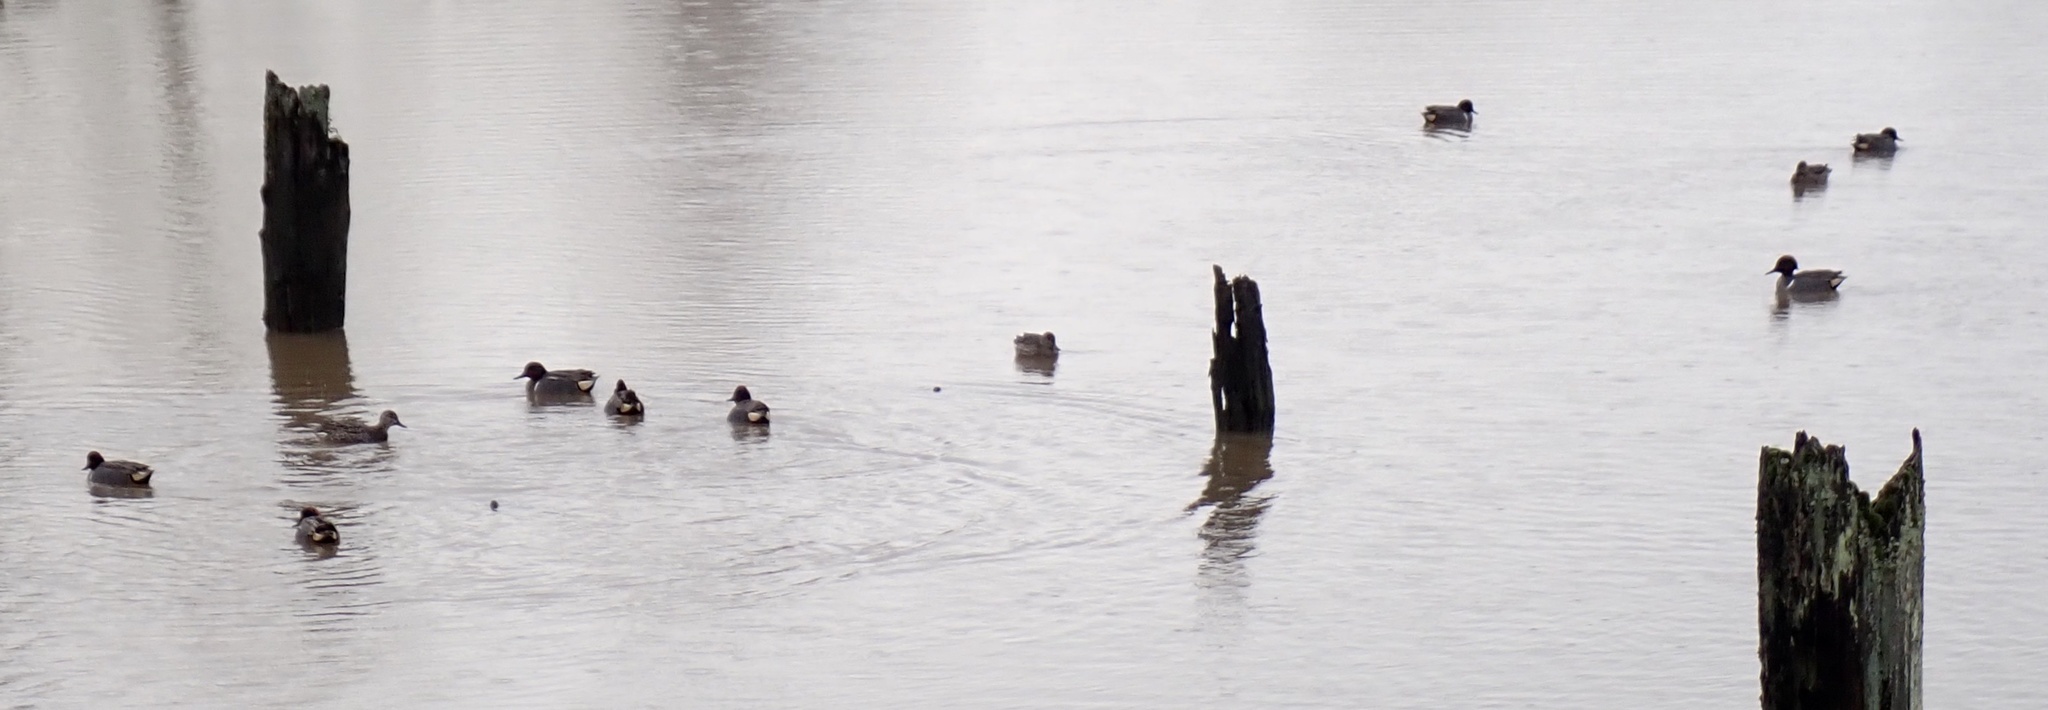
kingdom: Animalia
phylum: Chordata
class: Aves
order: Anseriformes
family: Anatidae
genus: Anas
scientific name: Anas crecca
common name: Eurasian teal
